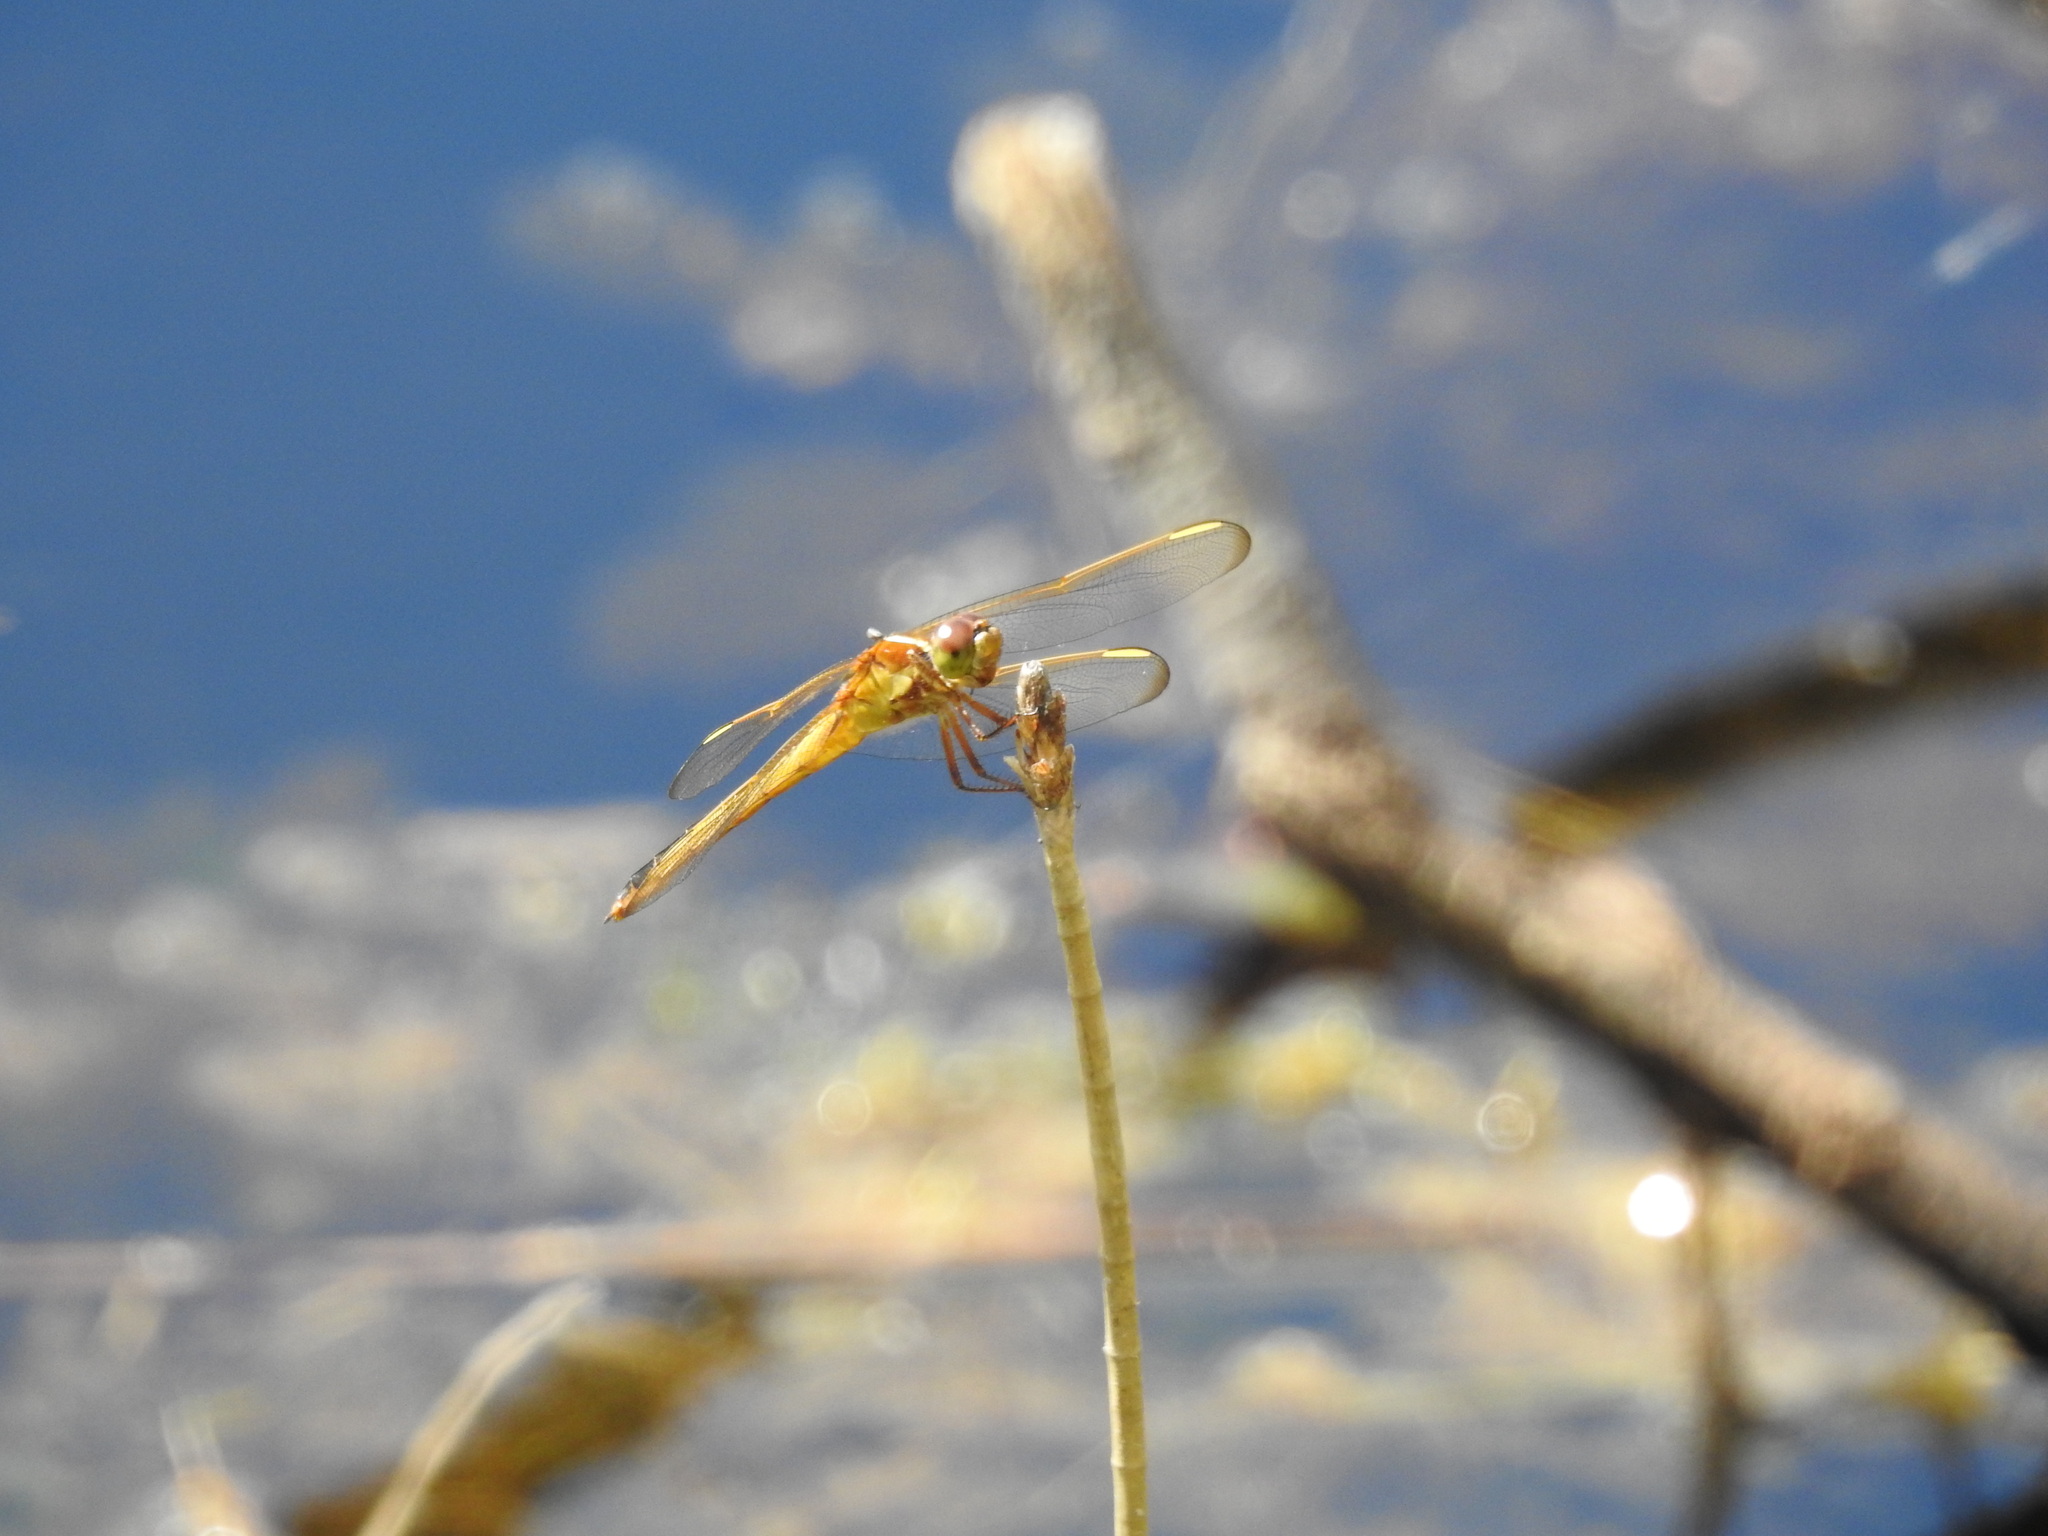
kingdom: Animalia
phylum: Arthropoda
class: Insecta
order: Odonata
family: Libellulidae
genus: Libellula
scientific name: Libellula needhami
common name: Needham's skimmer
